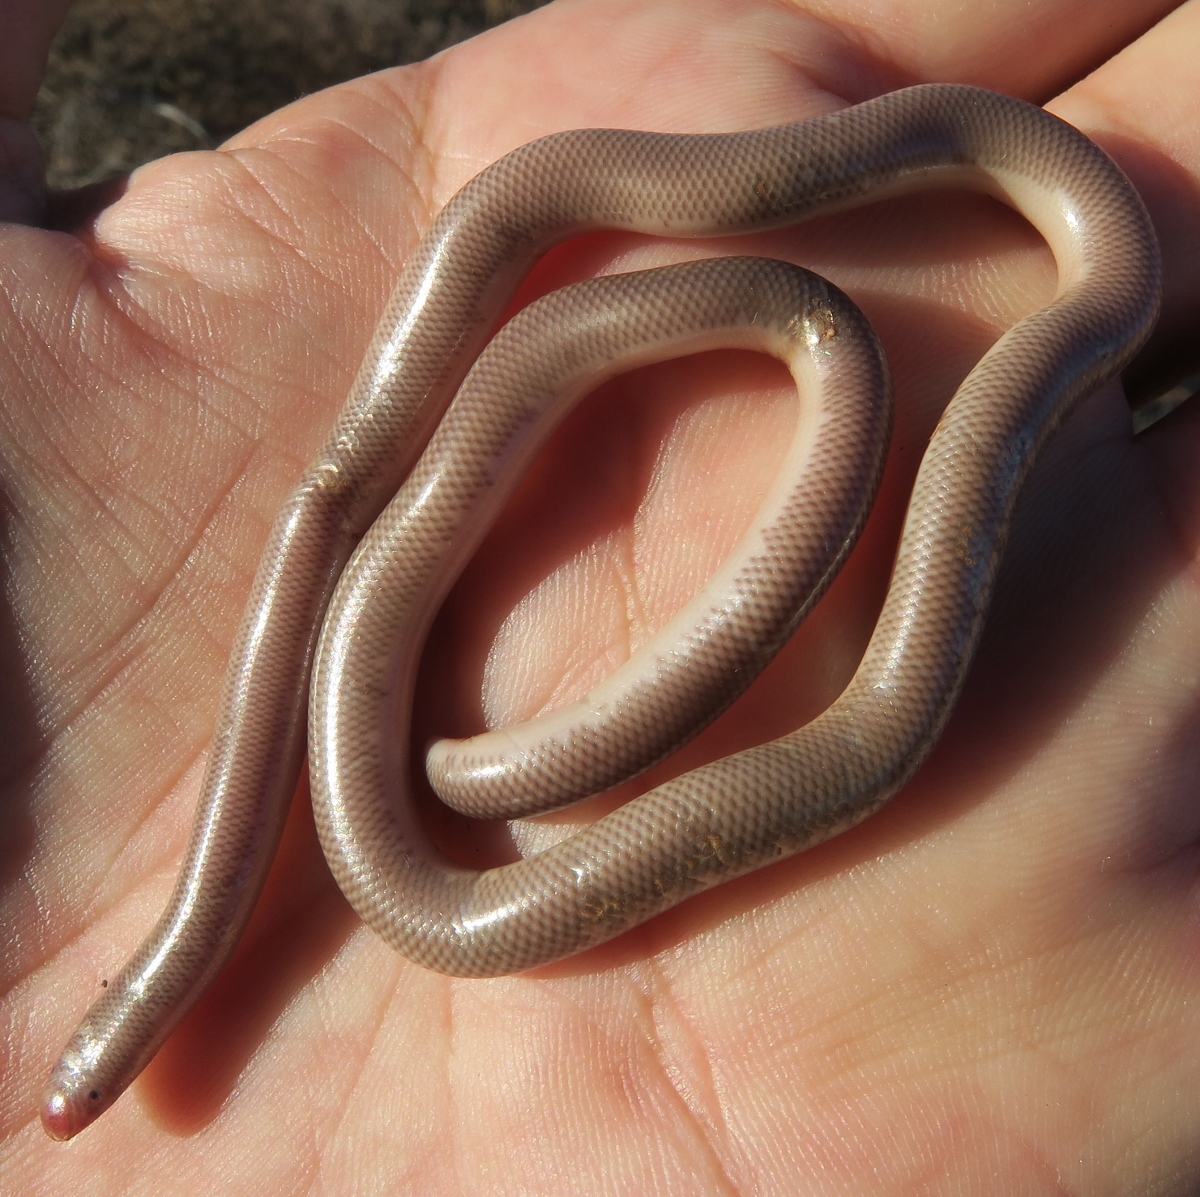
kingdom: Animalia
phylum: Chordata
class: Squamata
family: Typhlopidae
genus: Rhinotyphlops
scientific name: Rhinotyphlops lalandei
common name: Delalande's beaked blind snake
